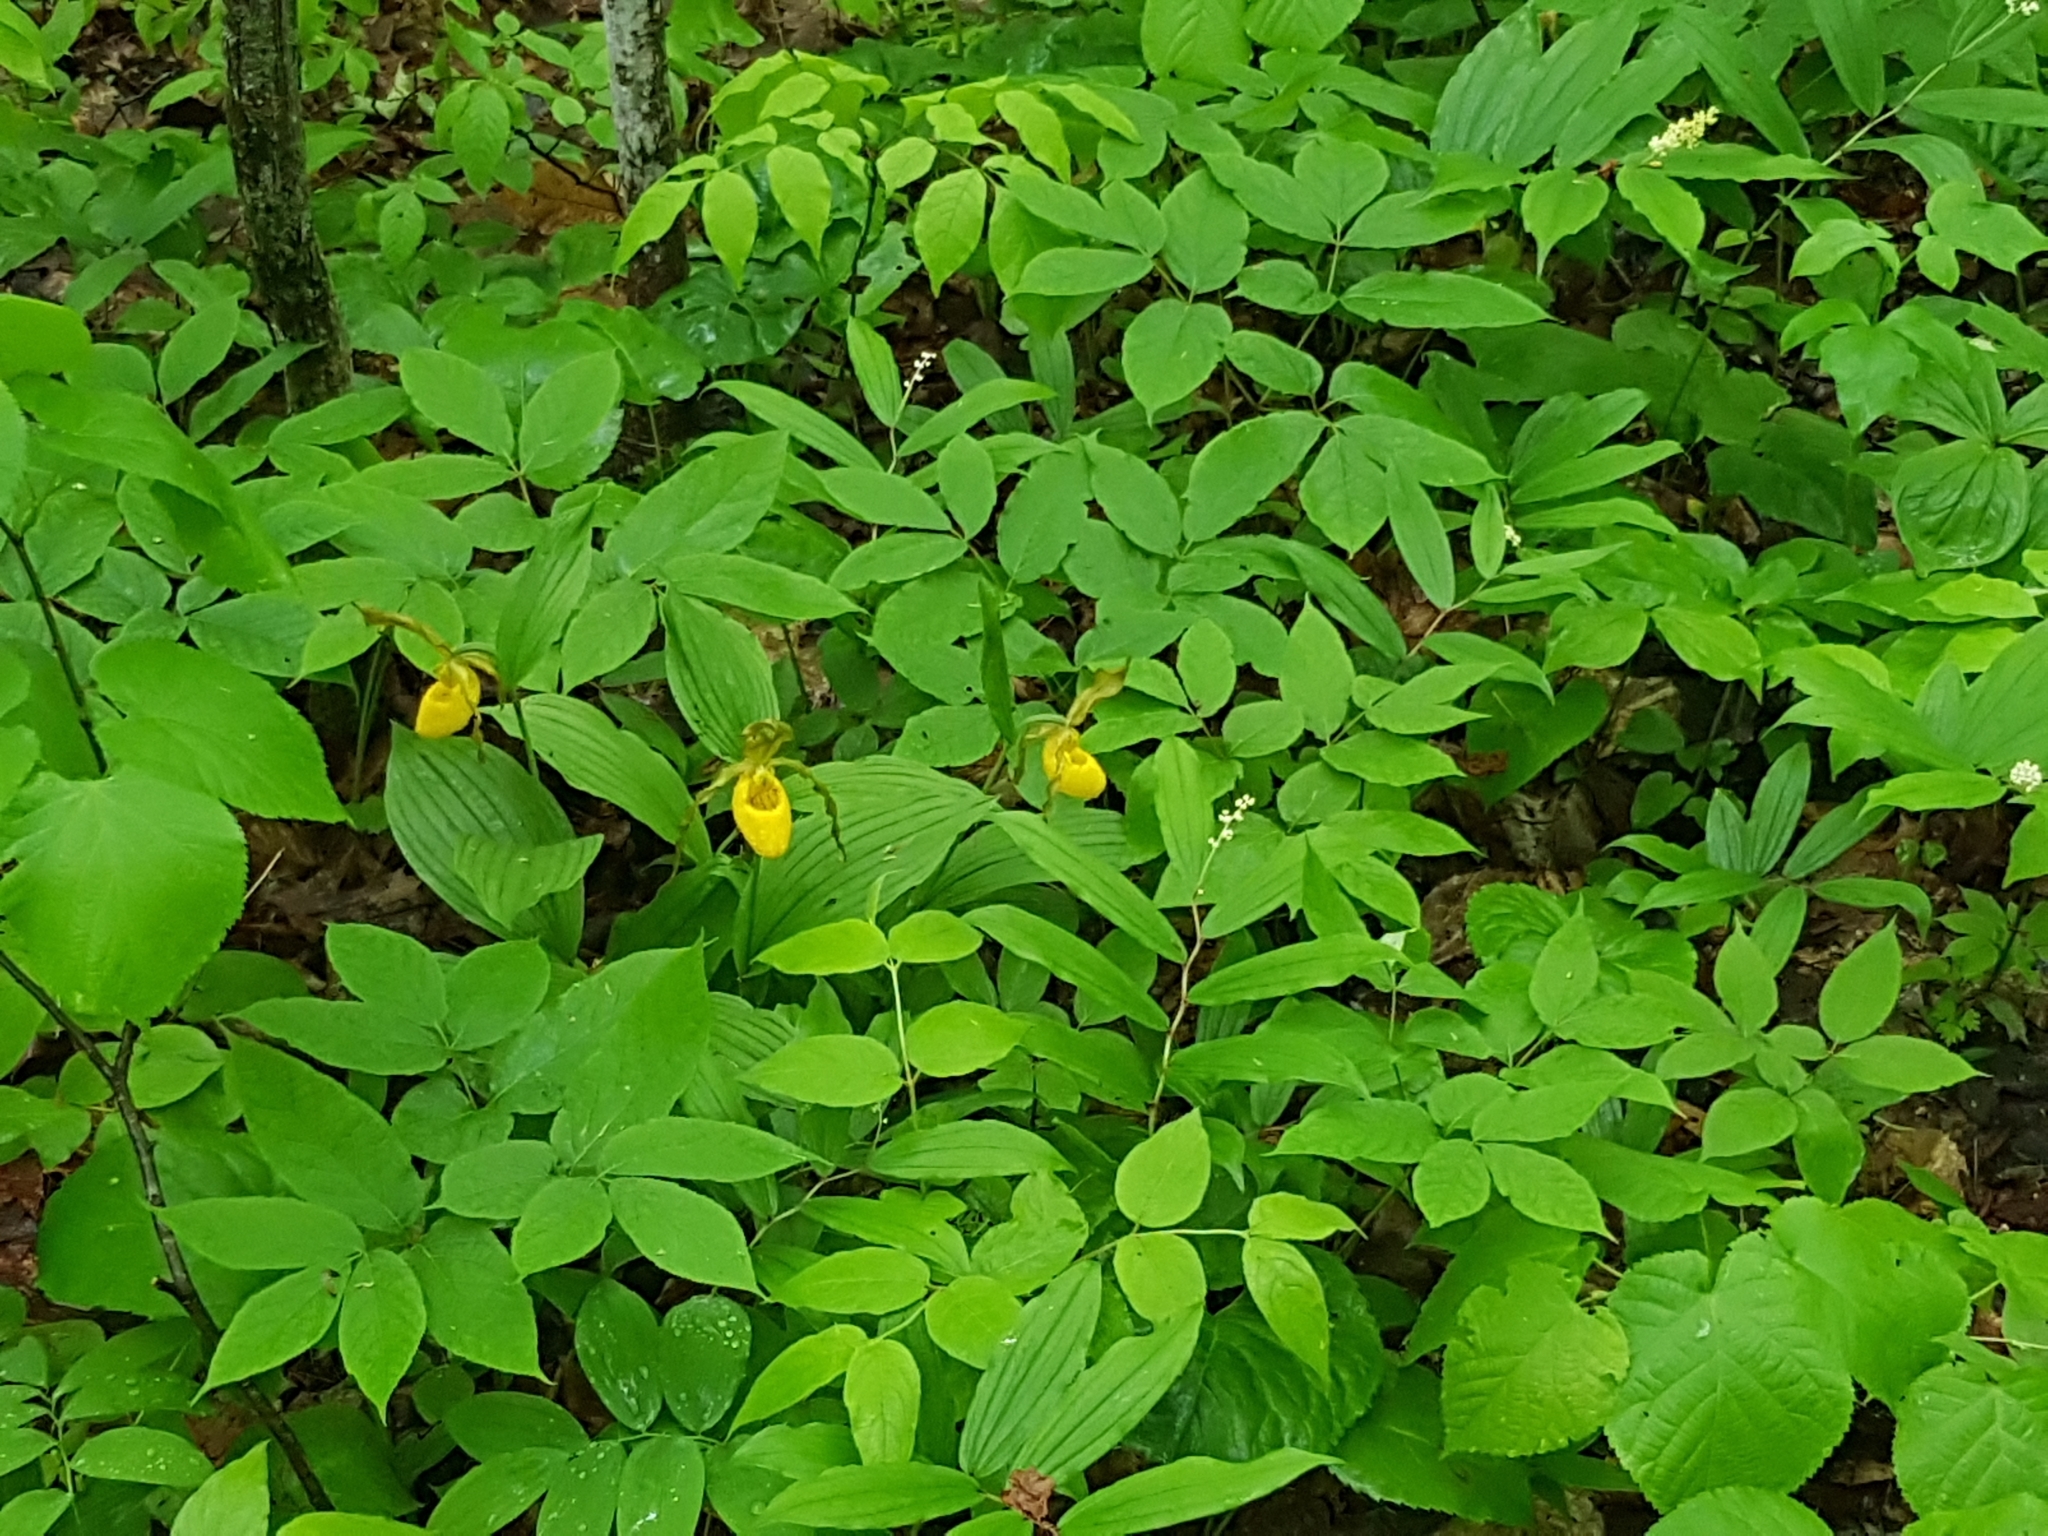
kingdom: Plantae
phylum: Tracheophyta
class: Liliopsida
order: Asparagales
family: Orchidaceae
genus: Cypripedium
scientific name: Cypripedium parviflorum
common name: American yellow lady's-slipper
